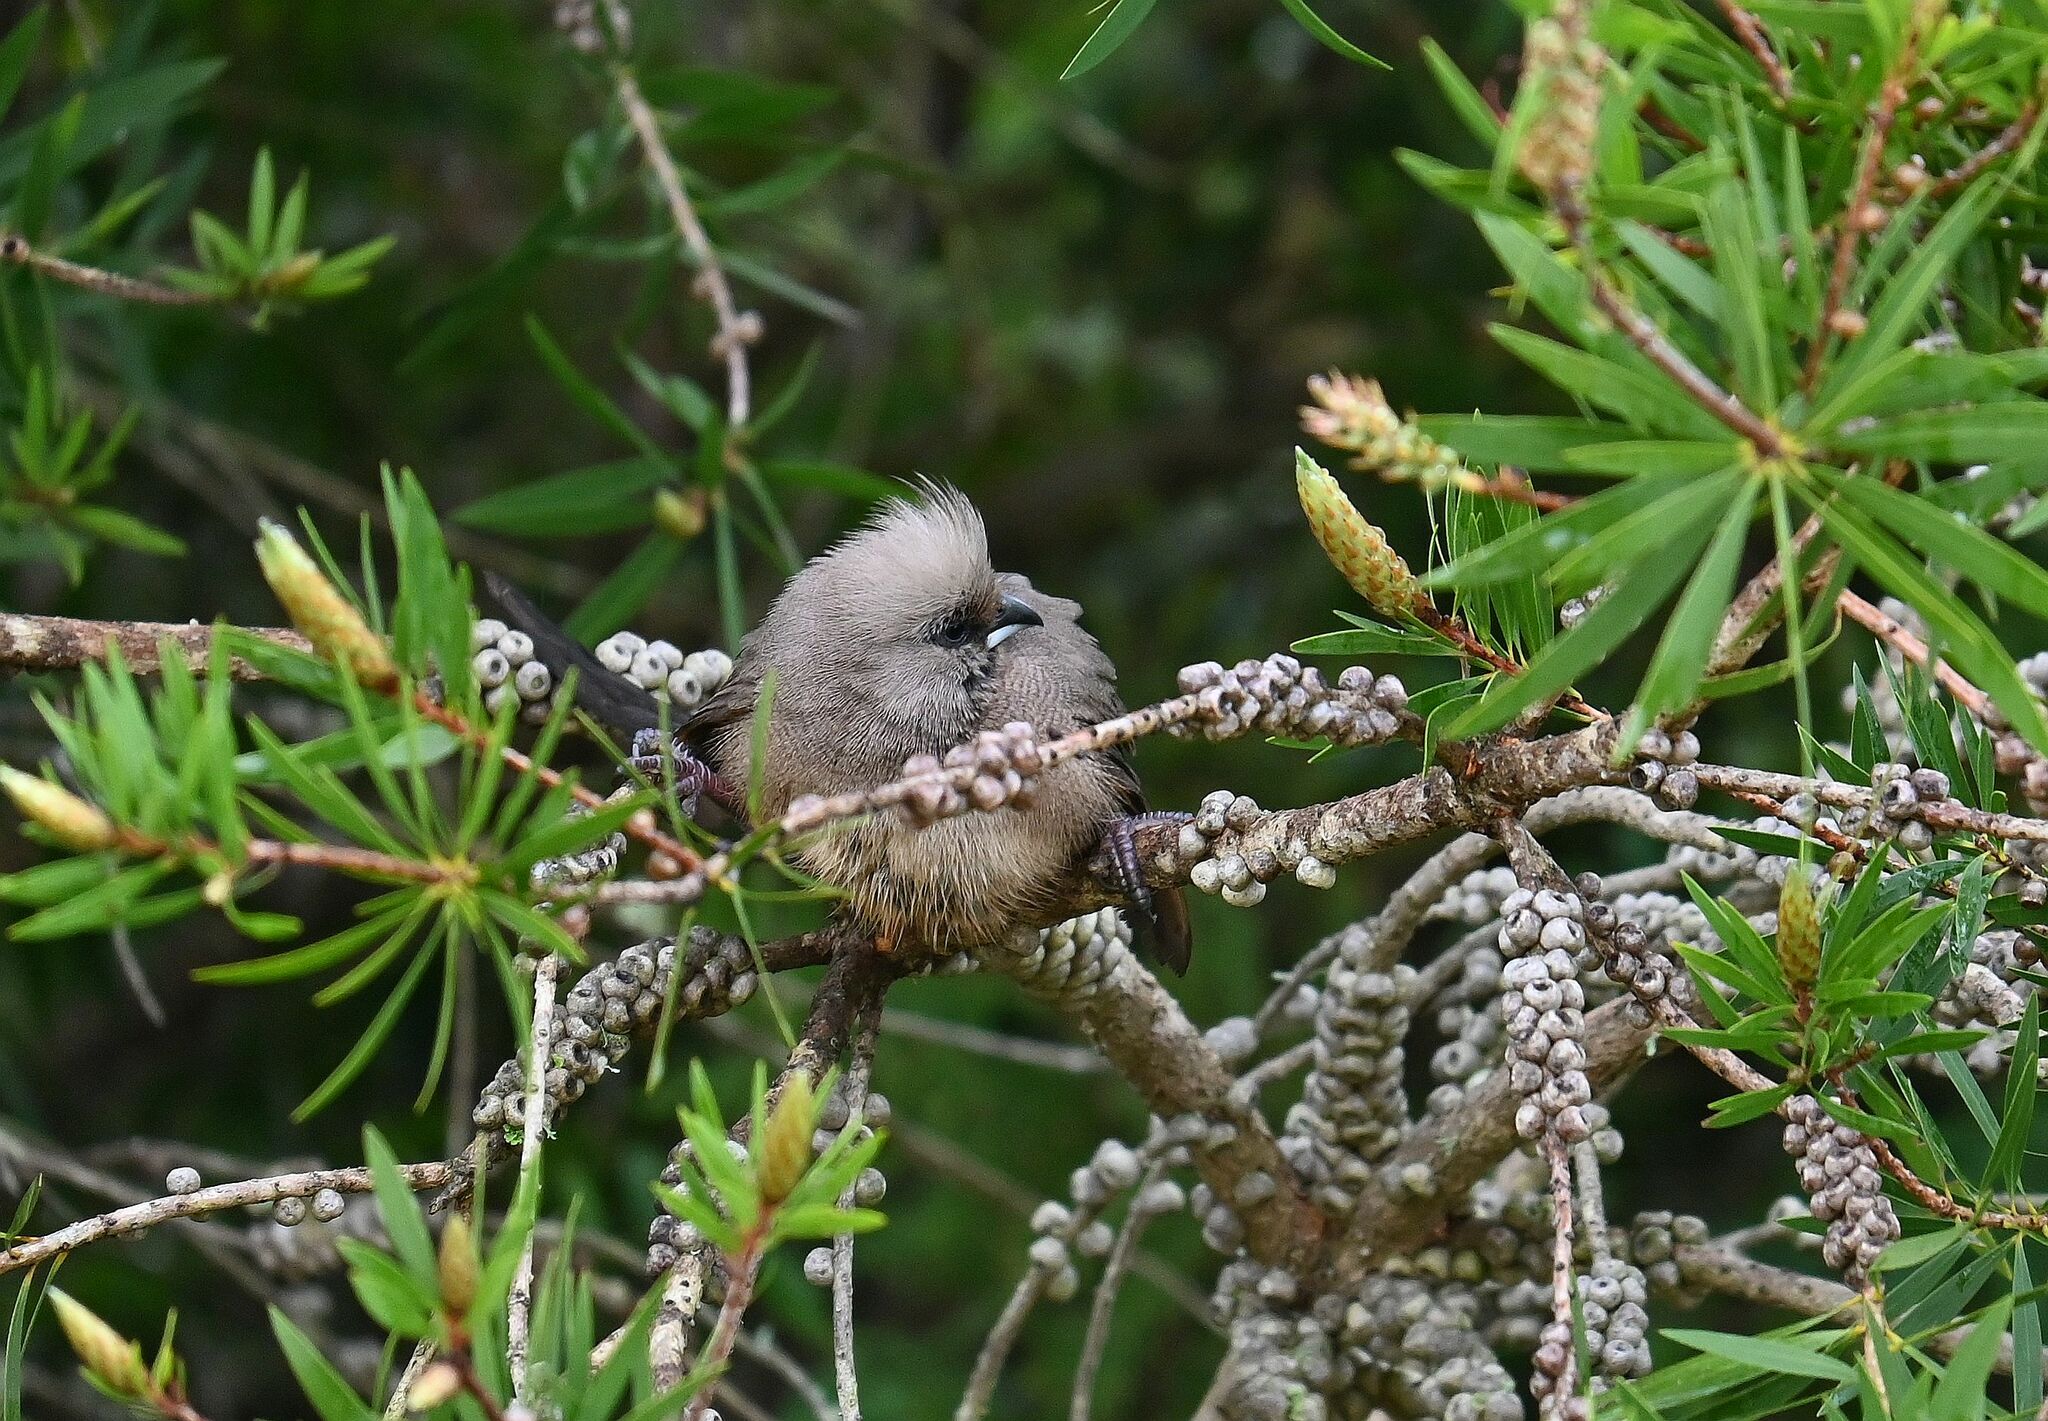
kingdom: Animalia
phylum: Chordata
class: Aves
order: Coliiformes
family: Coliidae
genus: Colius
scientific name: Colius striatus
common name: Speckled mousebird
